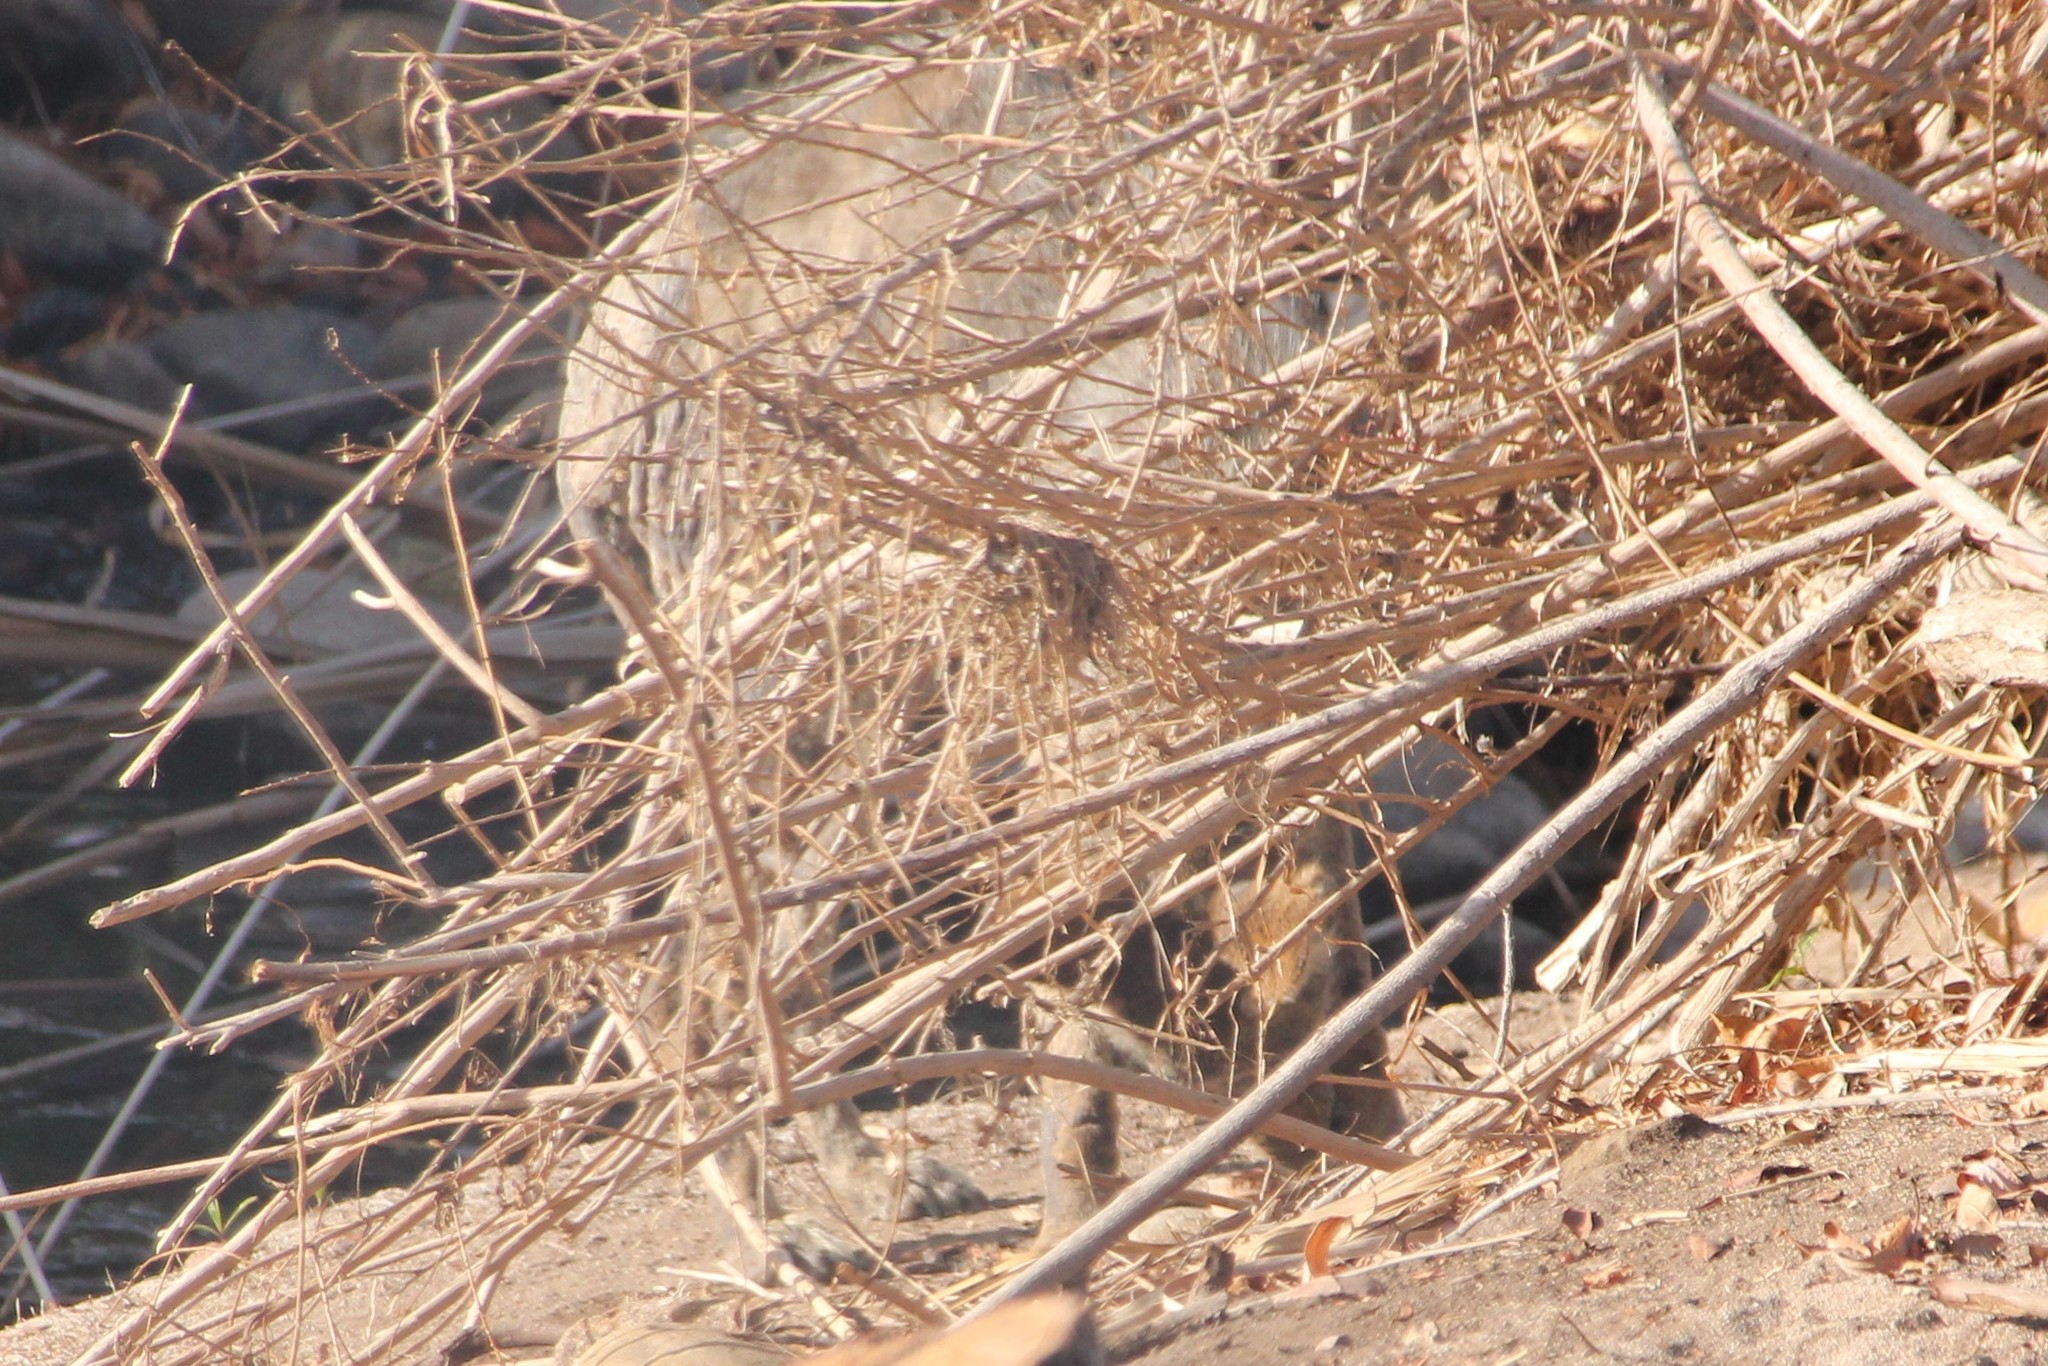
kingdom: Animalia
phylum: Chordata
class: Mammalia
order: Carnivora
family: Canidae
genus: Canis
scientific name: Canis latrans
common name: Coyote
